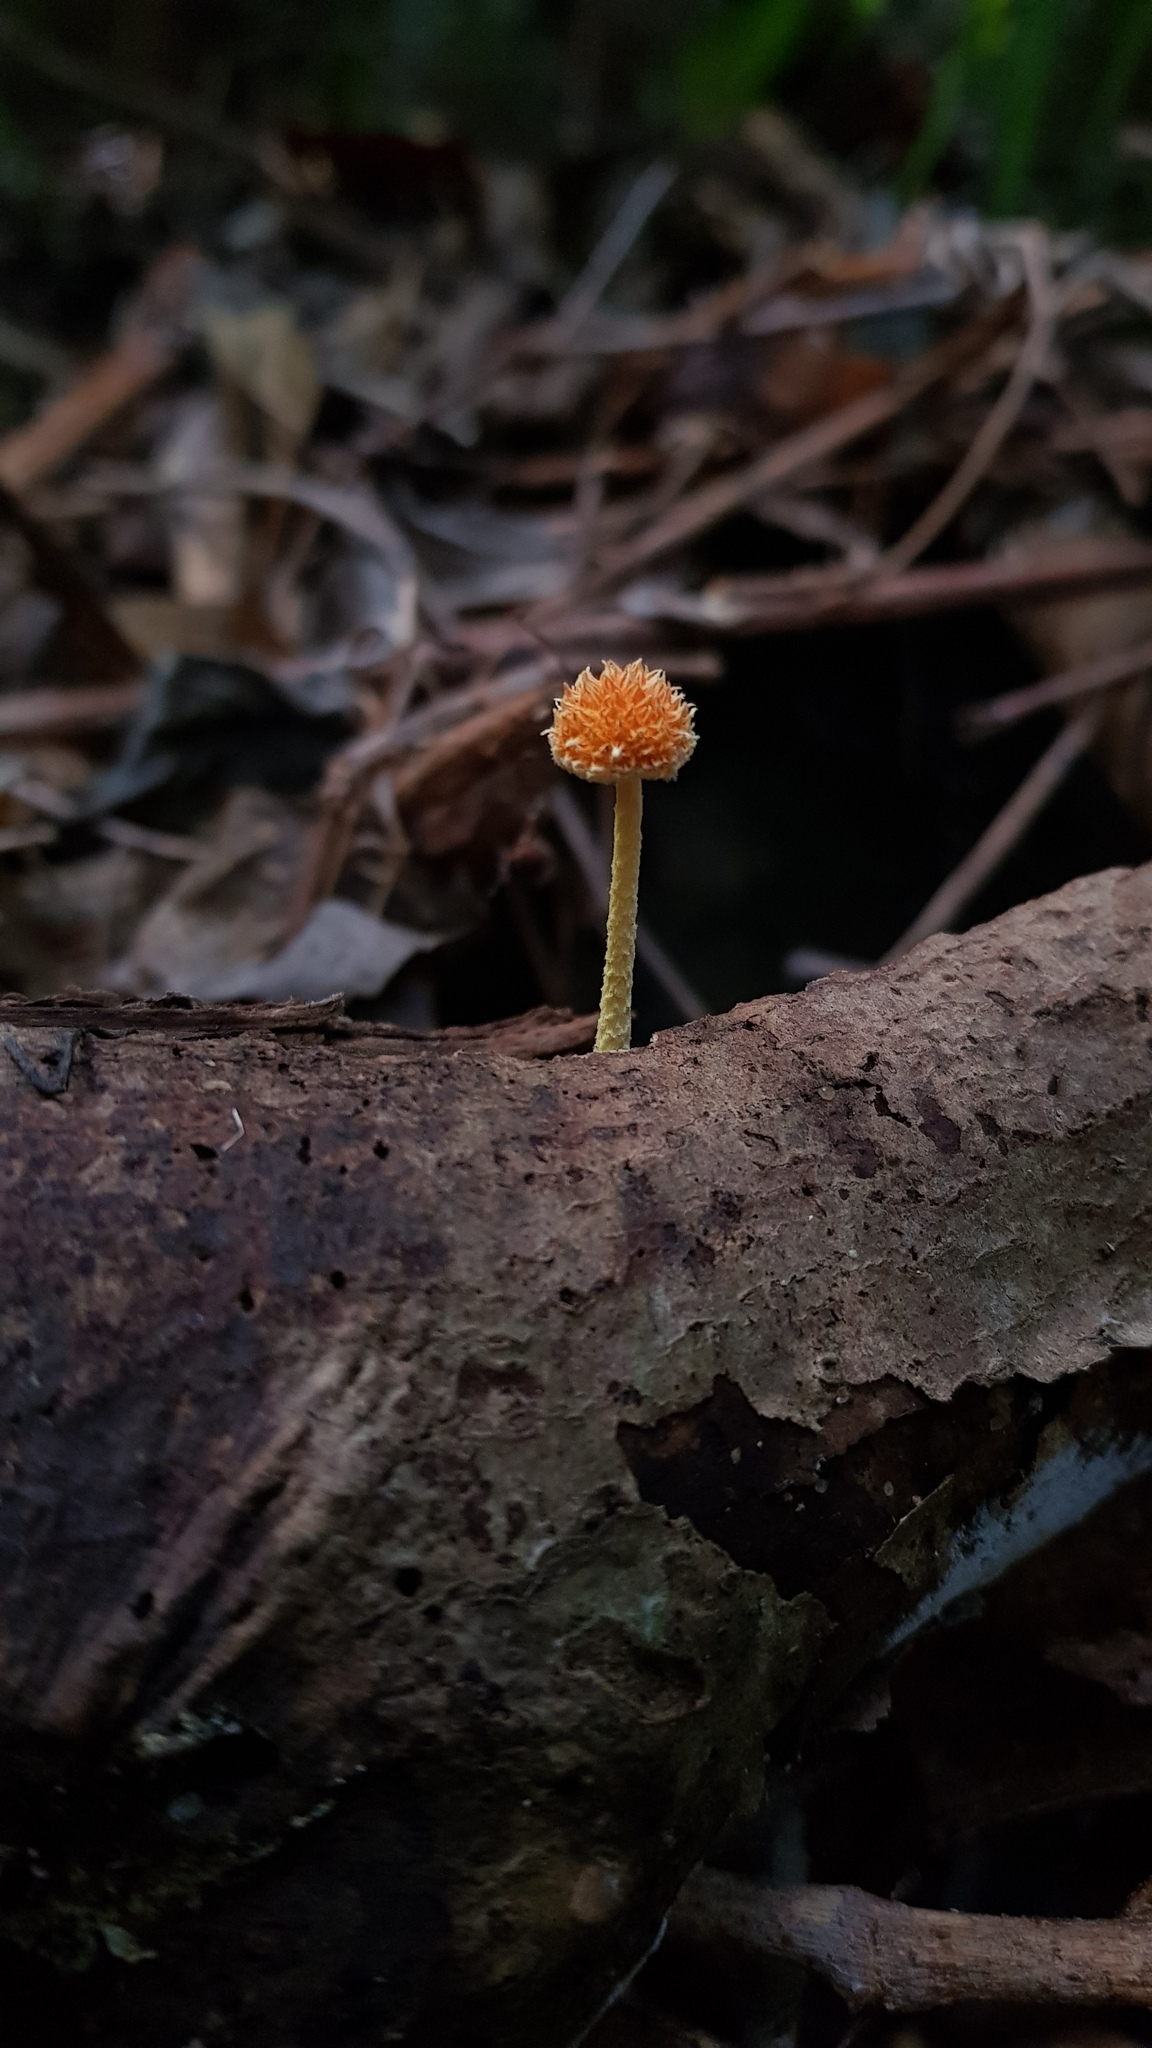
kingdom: Fungi
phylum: Basidiomycota
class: Agaricomycetes
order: Agaricales
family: Physalacriaceae
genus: Cyptotrama
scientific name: Cyptotrama asprata
